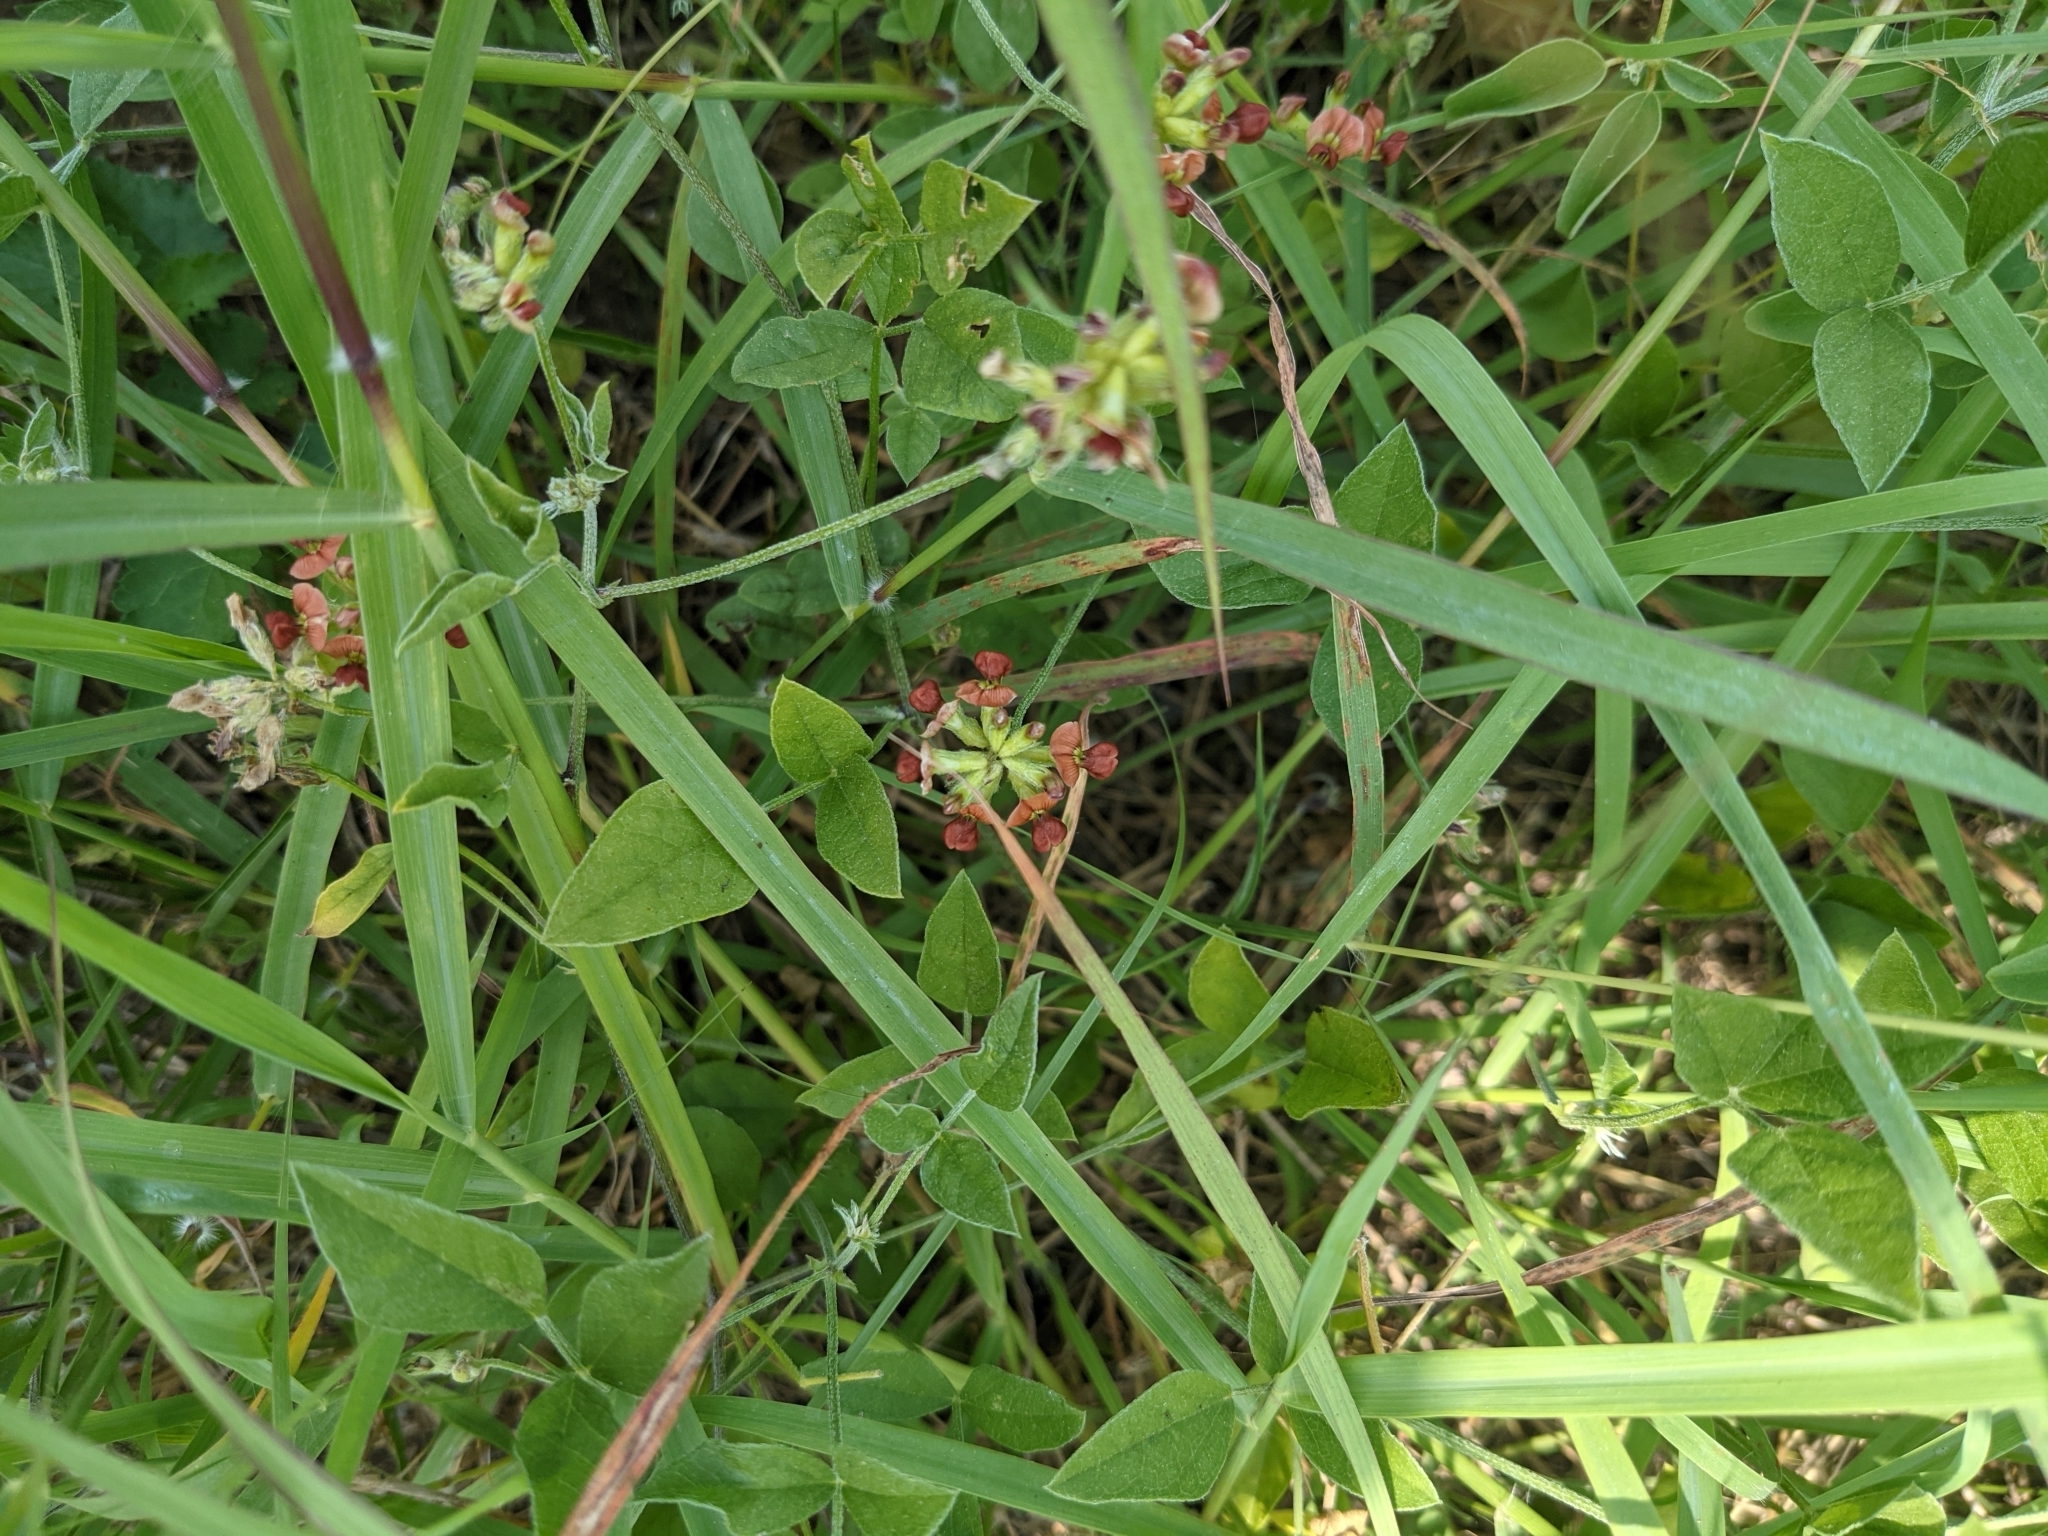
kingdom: Plantae
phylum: Tracheophyta
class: Magnoliopsida
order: Fabales
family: Fabaceae
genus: Pediomelum
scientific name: Pediomelum rhombifolium
